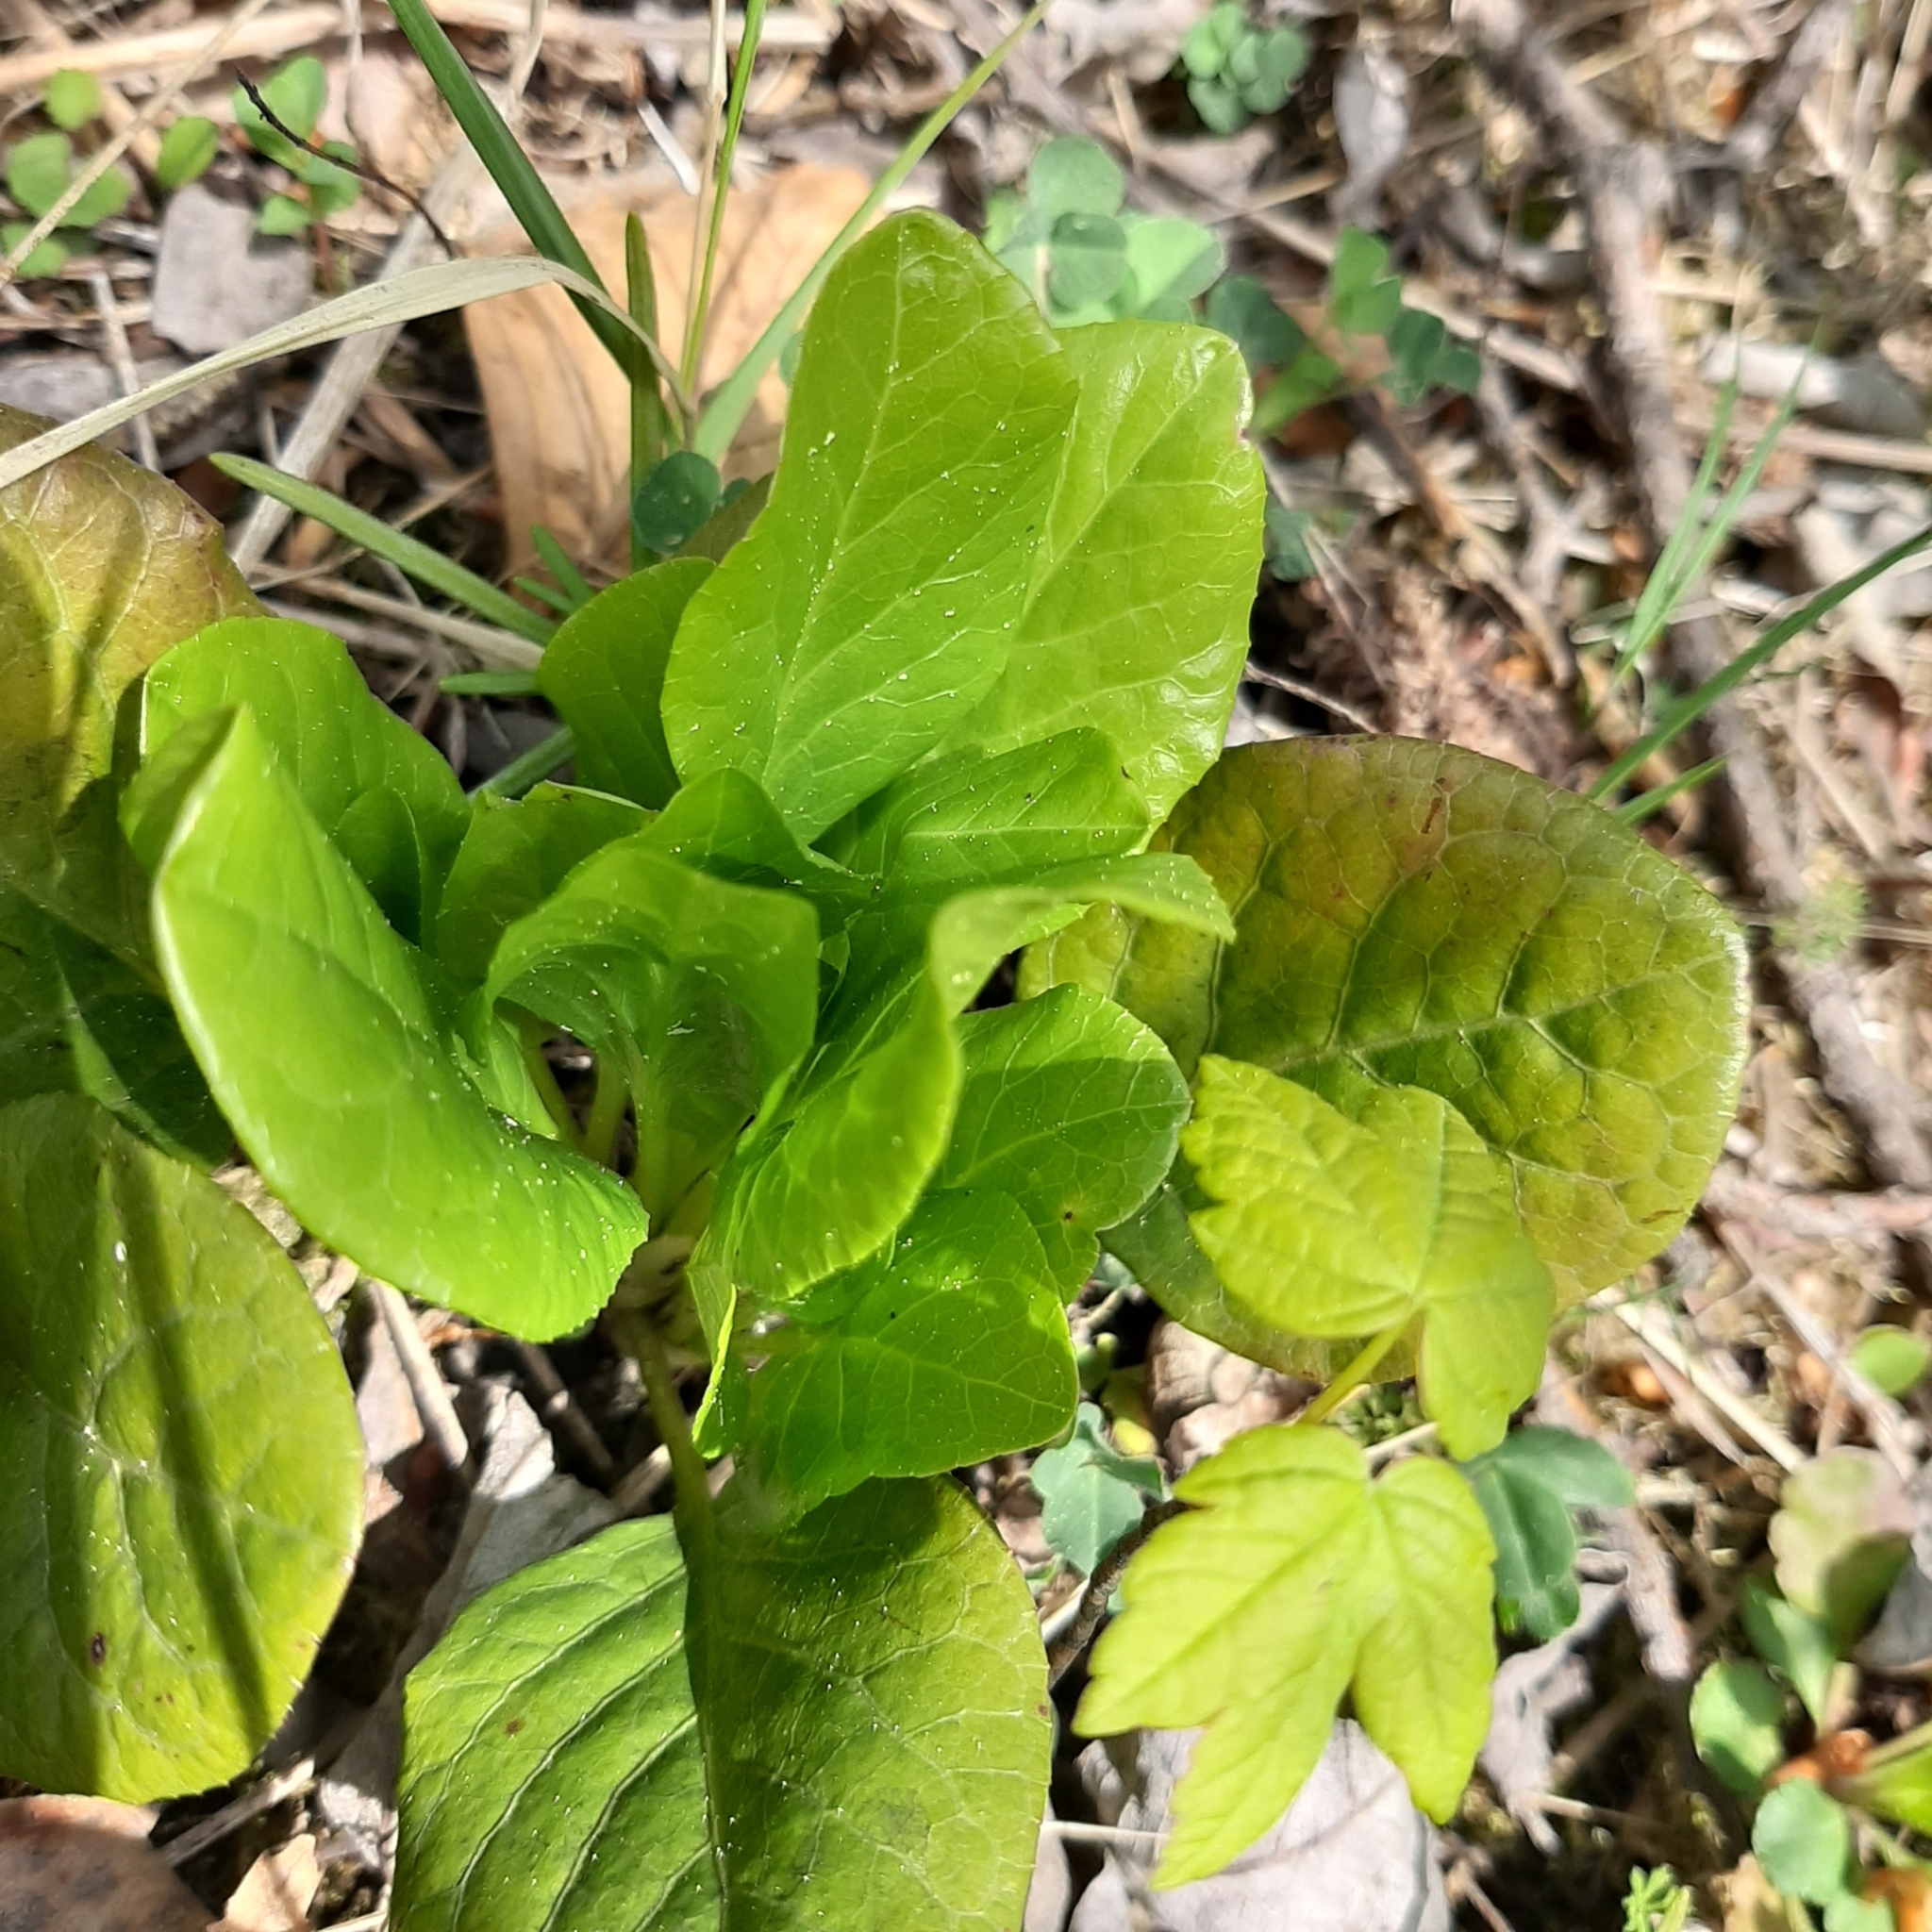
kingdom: Plantae
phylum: Tracheophyta
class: Magnoliopsida
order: Ericales
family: Ericaceae
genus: Pyrola
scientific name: Pyrola rotundifolia
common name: Round-leaved wintergreen
